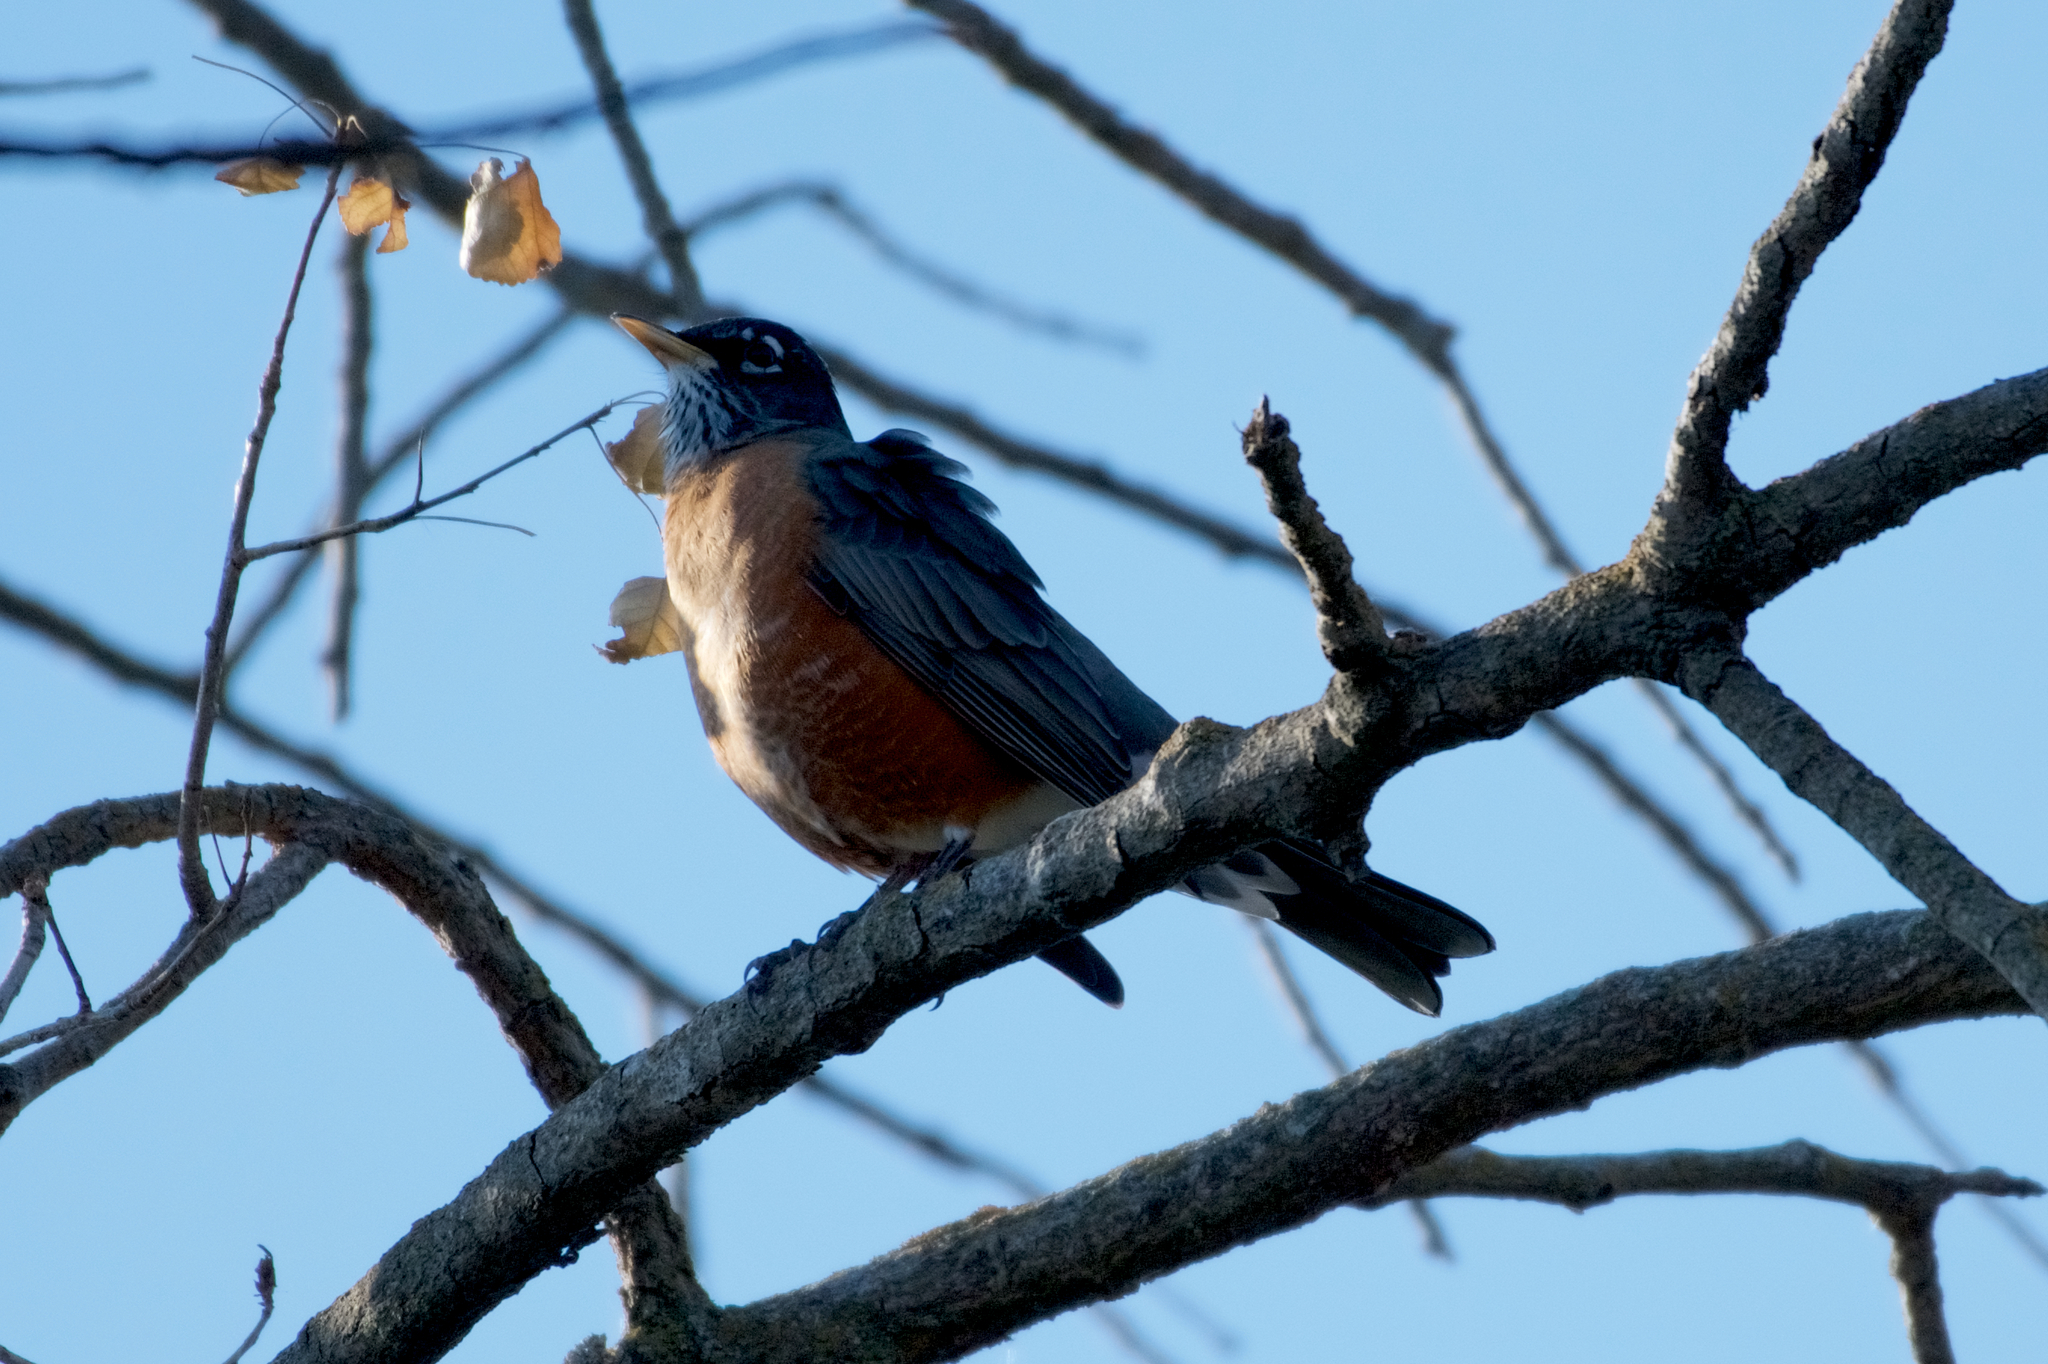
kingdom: Animalia
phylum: Chordata
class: Aves
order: Passeriformes
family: Turdidae
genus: Turdus
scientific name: Turdus migratorius
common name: American robin
